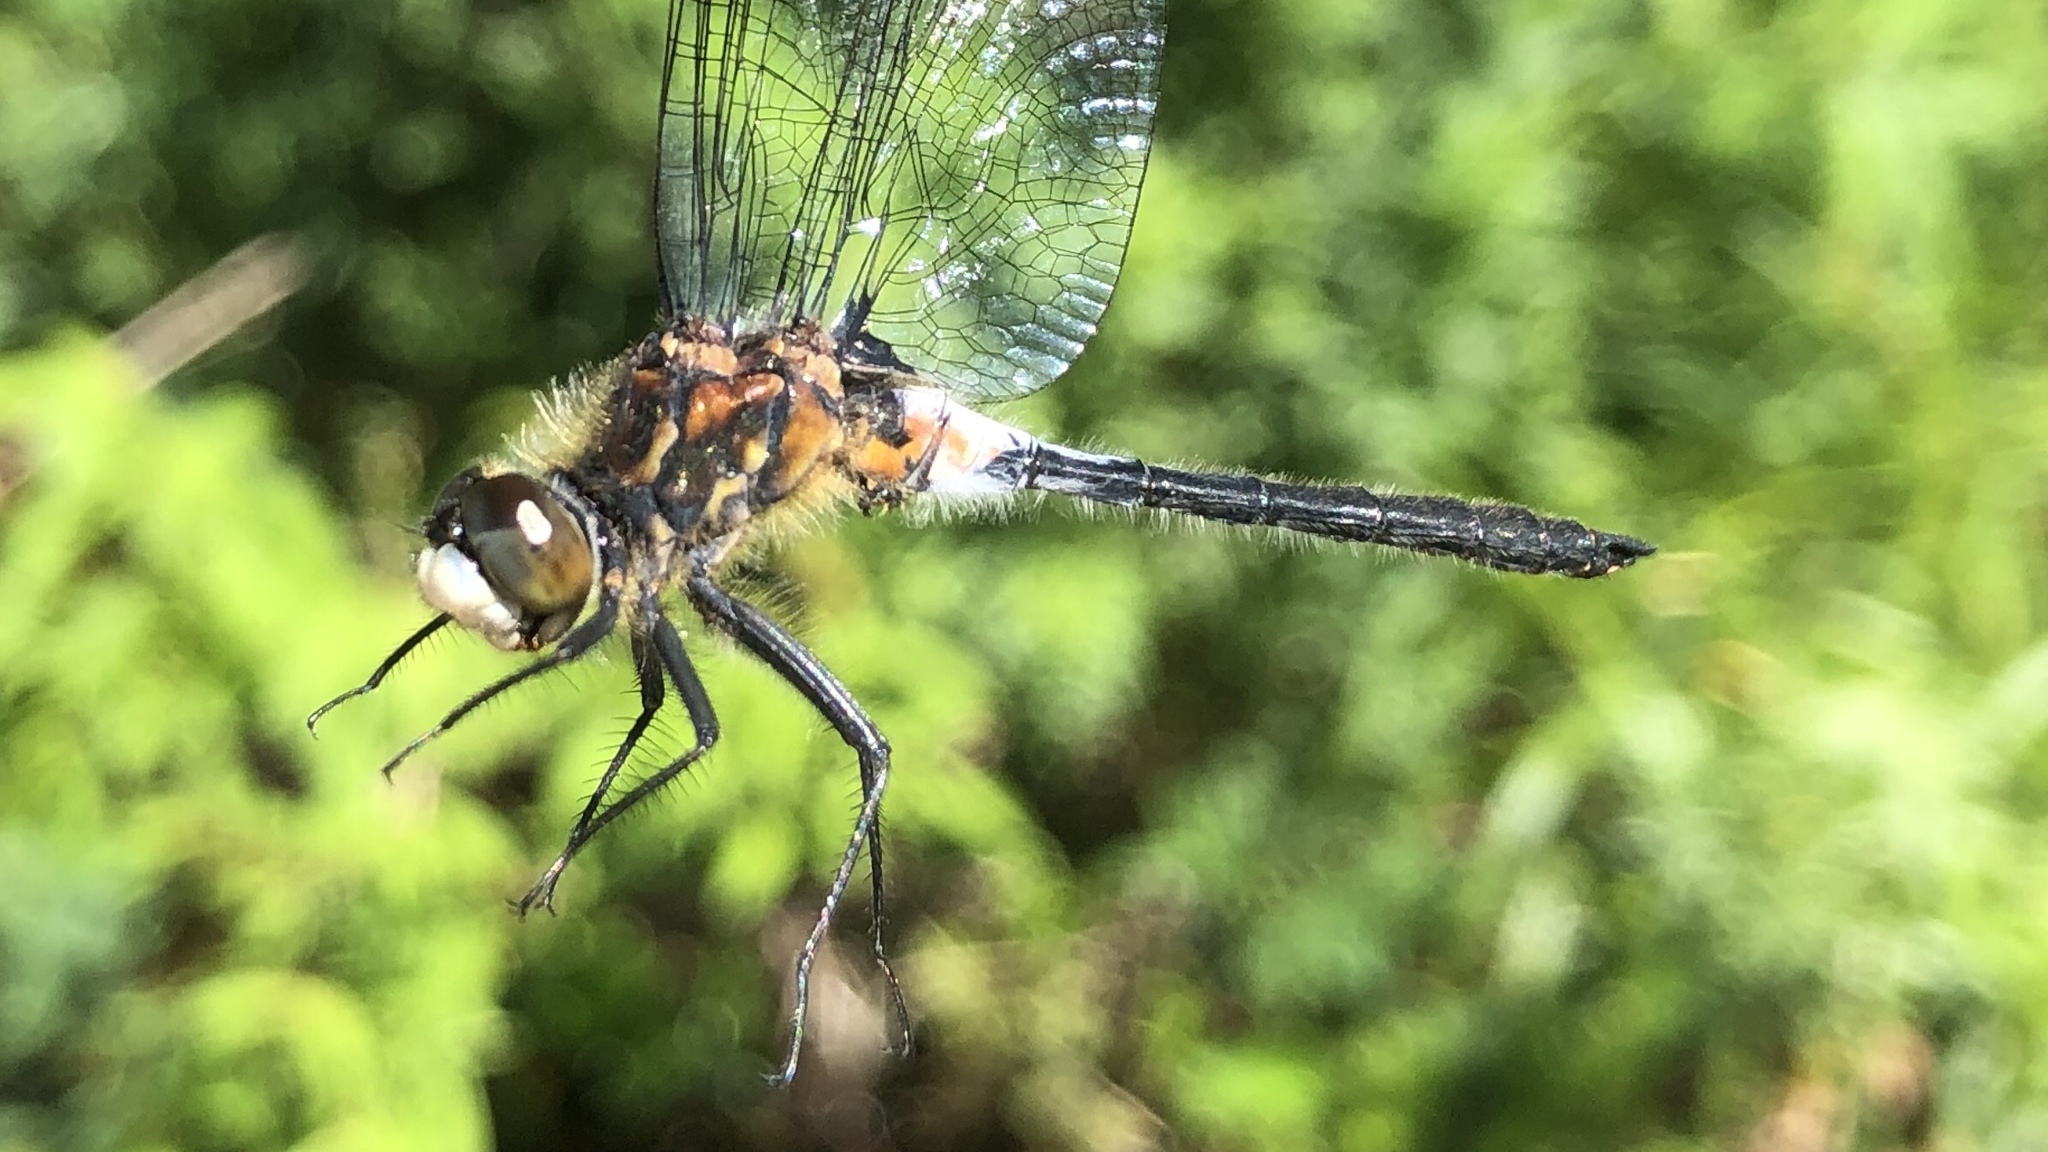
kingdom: Animalia
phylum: Arthropoda
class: Insecta
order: Odonata
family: Libellulidae
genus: Leucorrhinia
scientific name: Leucorrhinia proxima
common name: Belted whiteface
